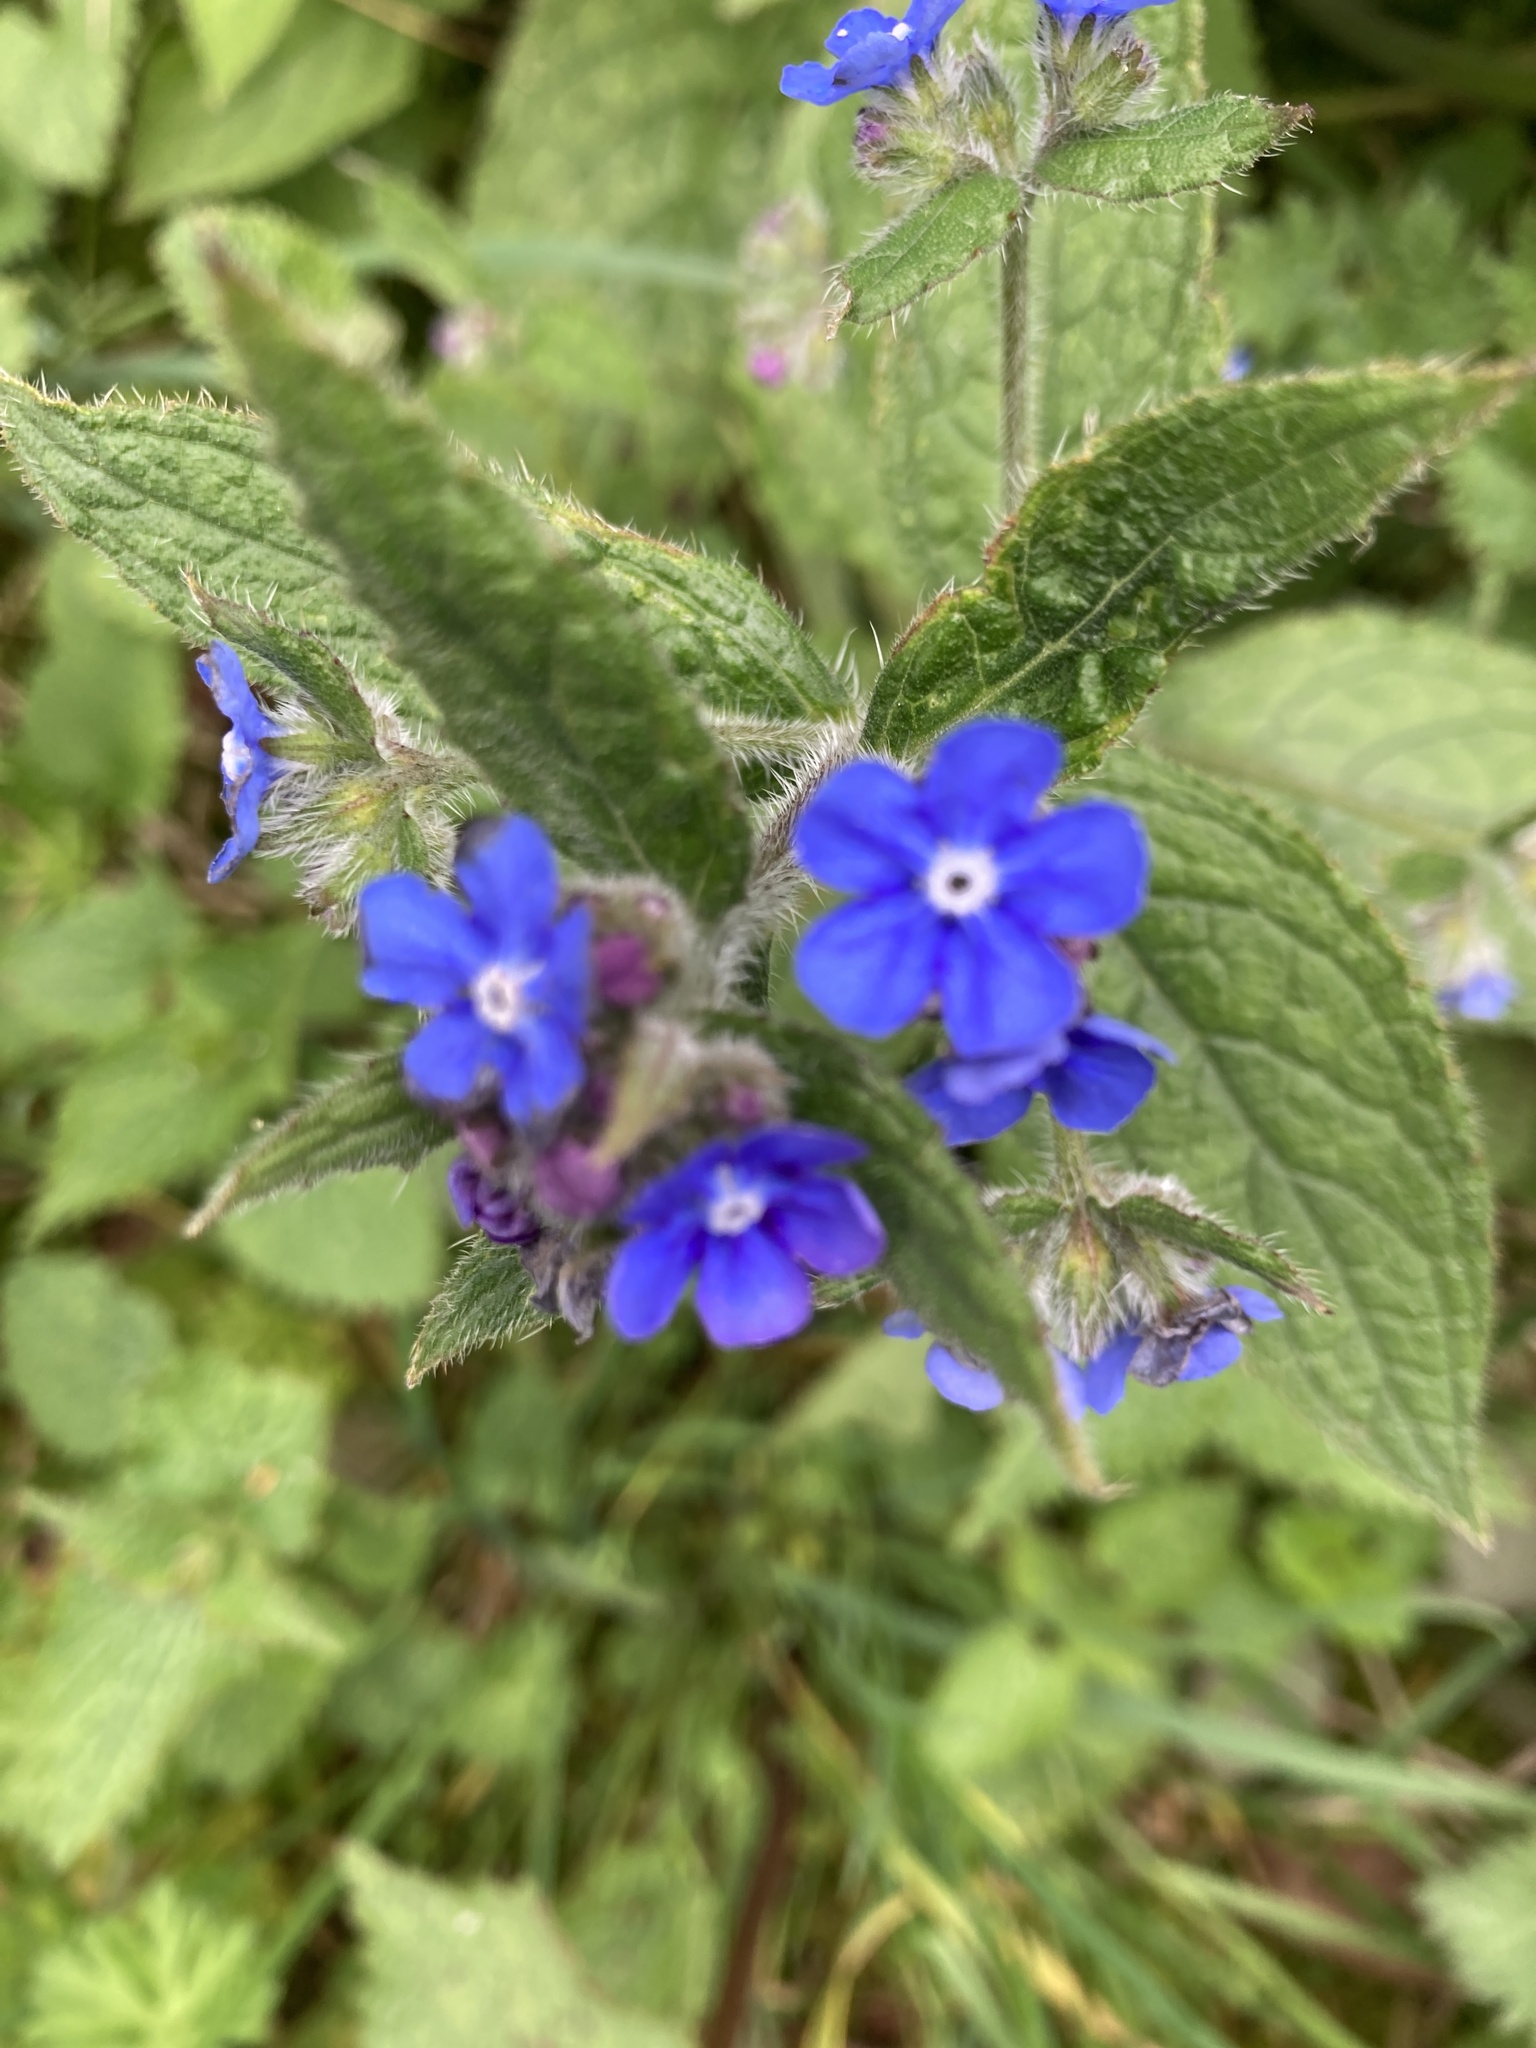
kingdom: Plantae
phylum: Tracheophyta
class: Magnoliopsida
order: Boraginales
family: Boraginaceae
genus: Pentaglottis
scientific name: Pentaglottis sempervirens
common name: Green alkanet
